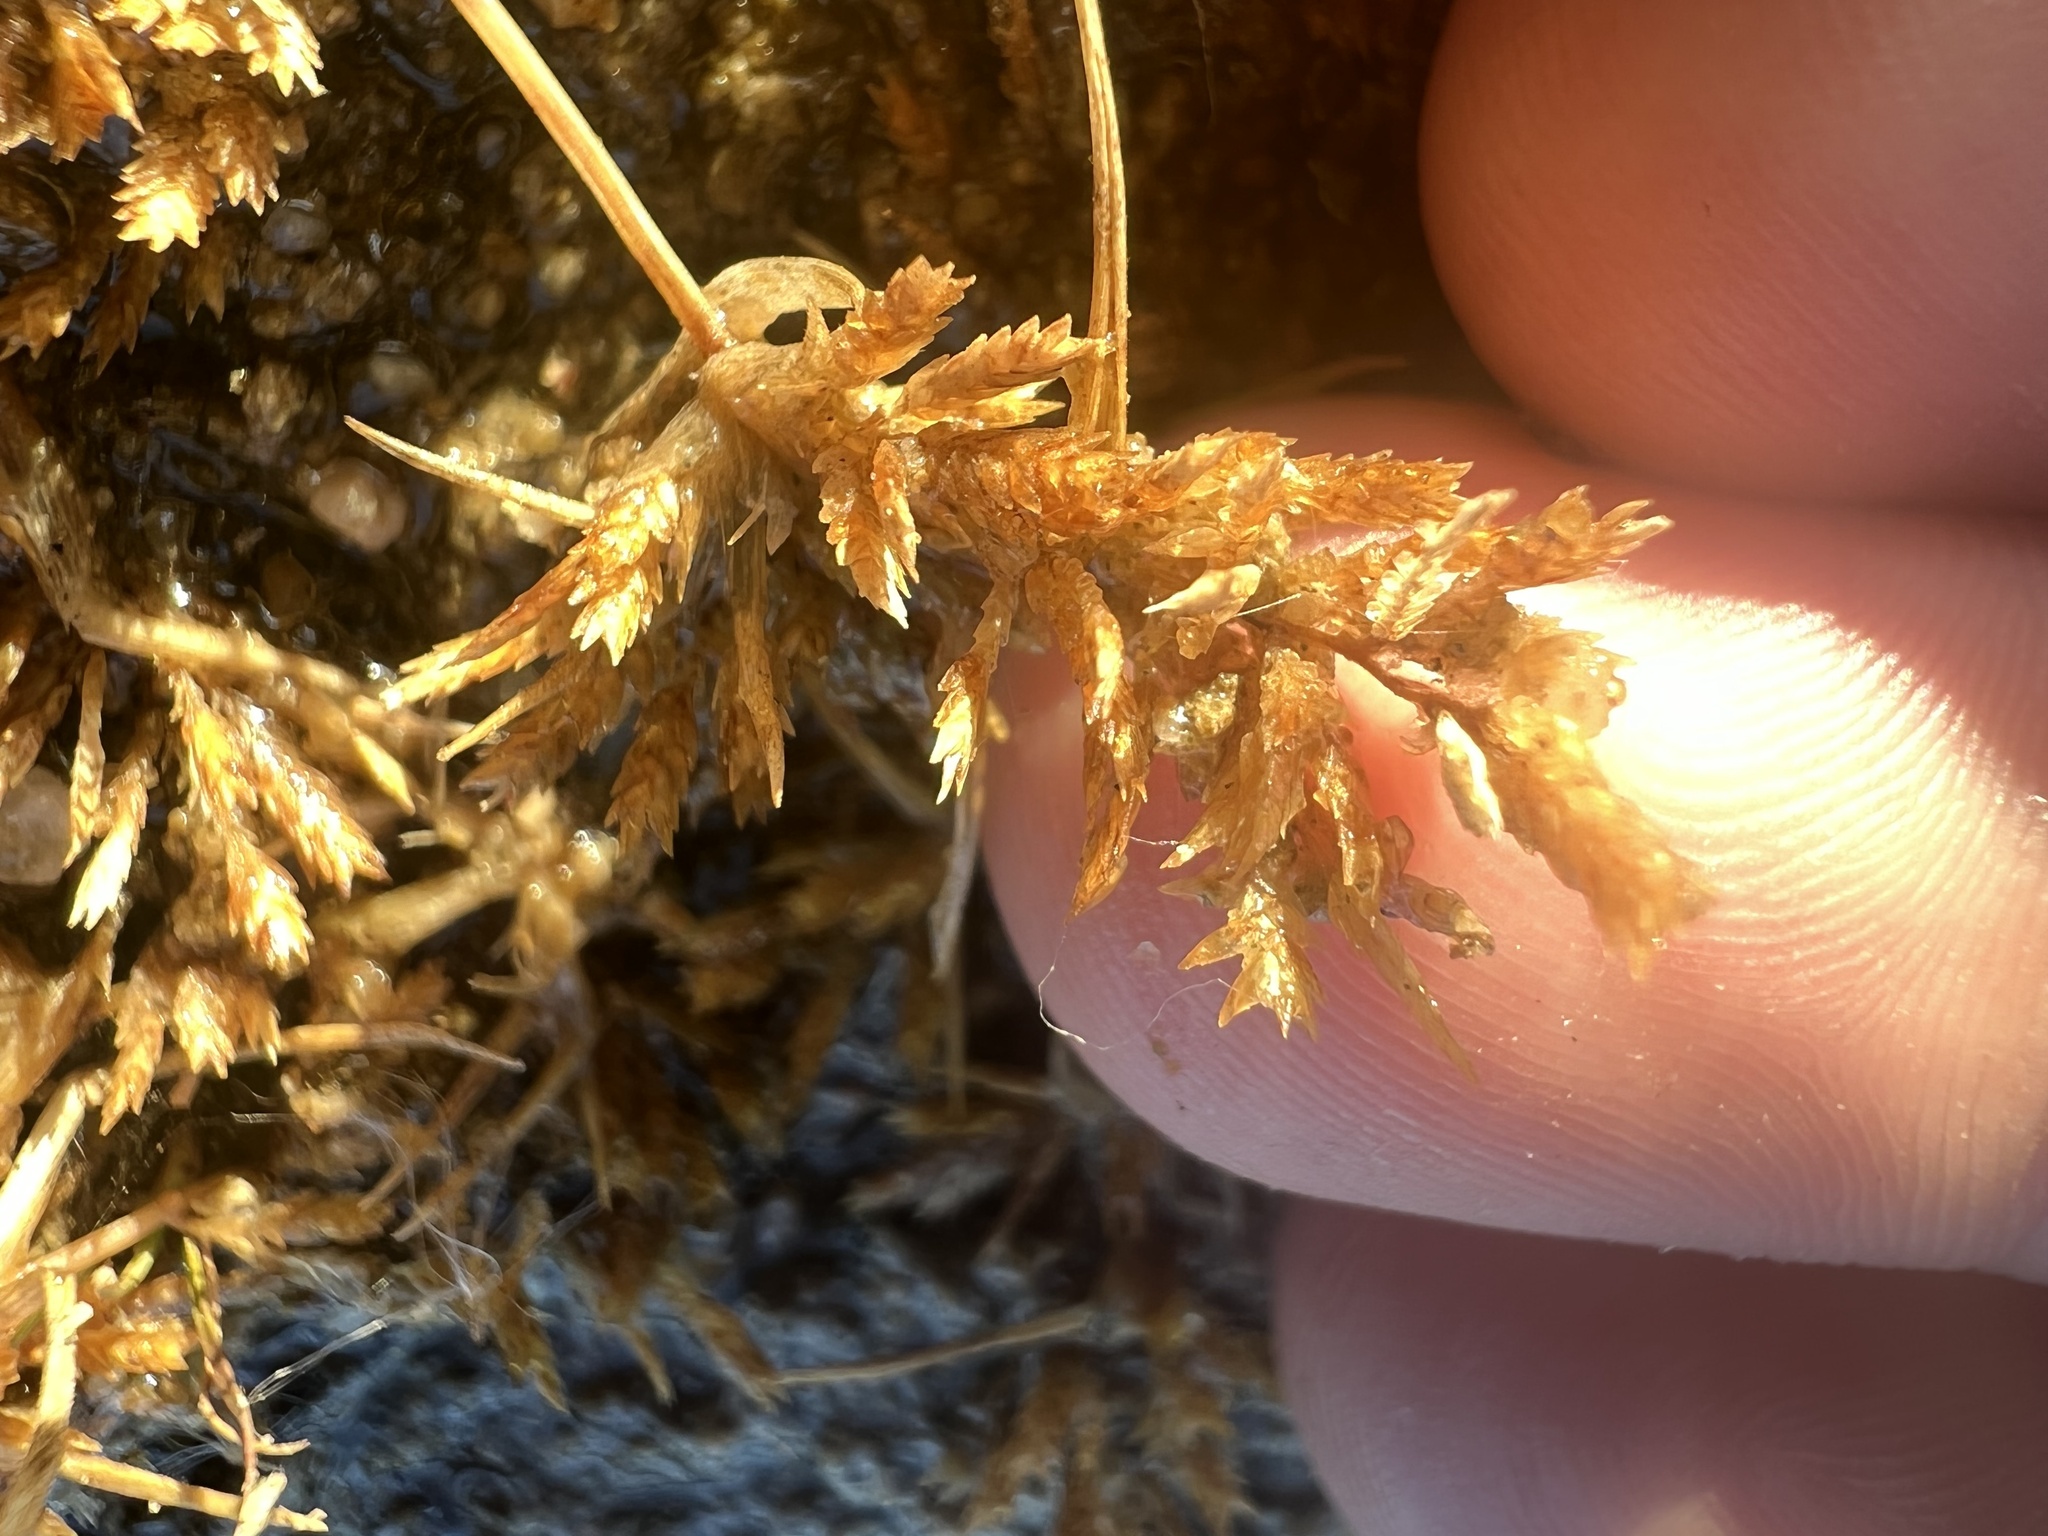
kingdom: Plantae
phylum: Tracheophyta
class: Liliopsida
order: Poales
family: Poaceae
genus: Eragrostis
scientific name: Eragrostis hypnoides
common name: Creeping love grass
